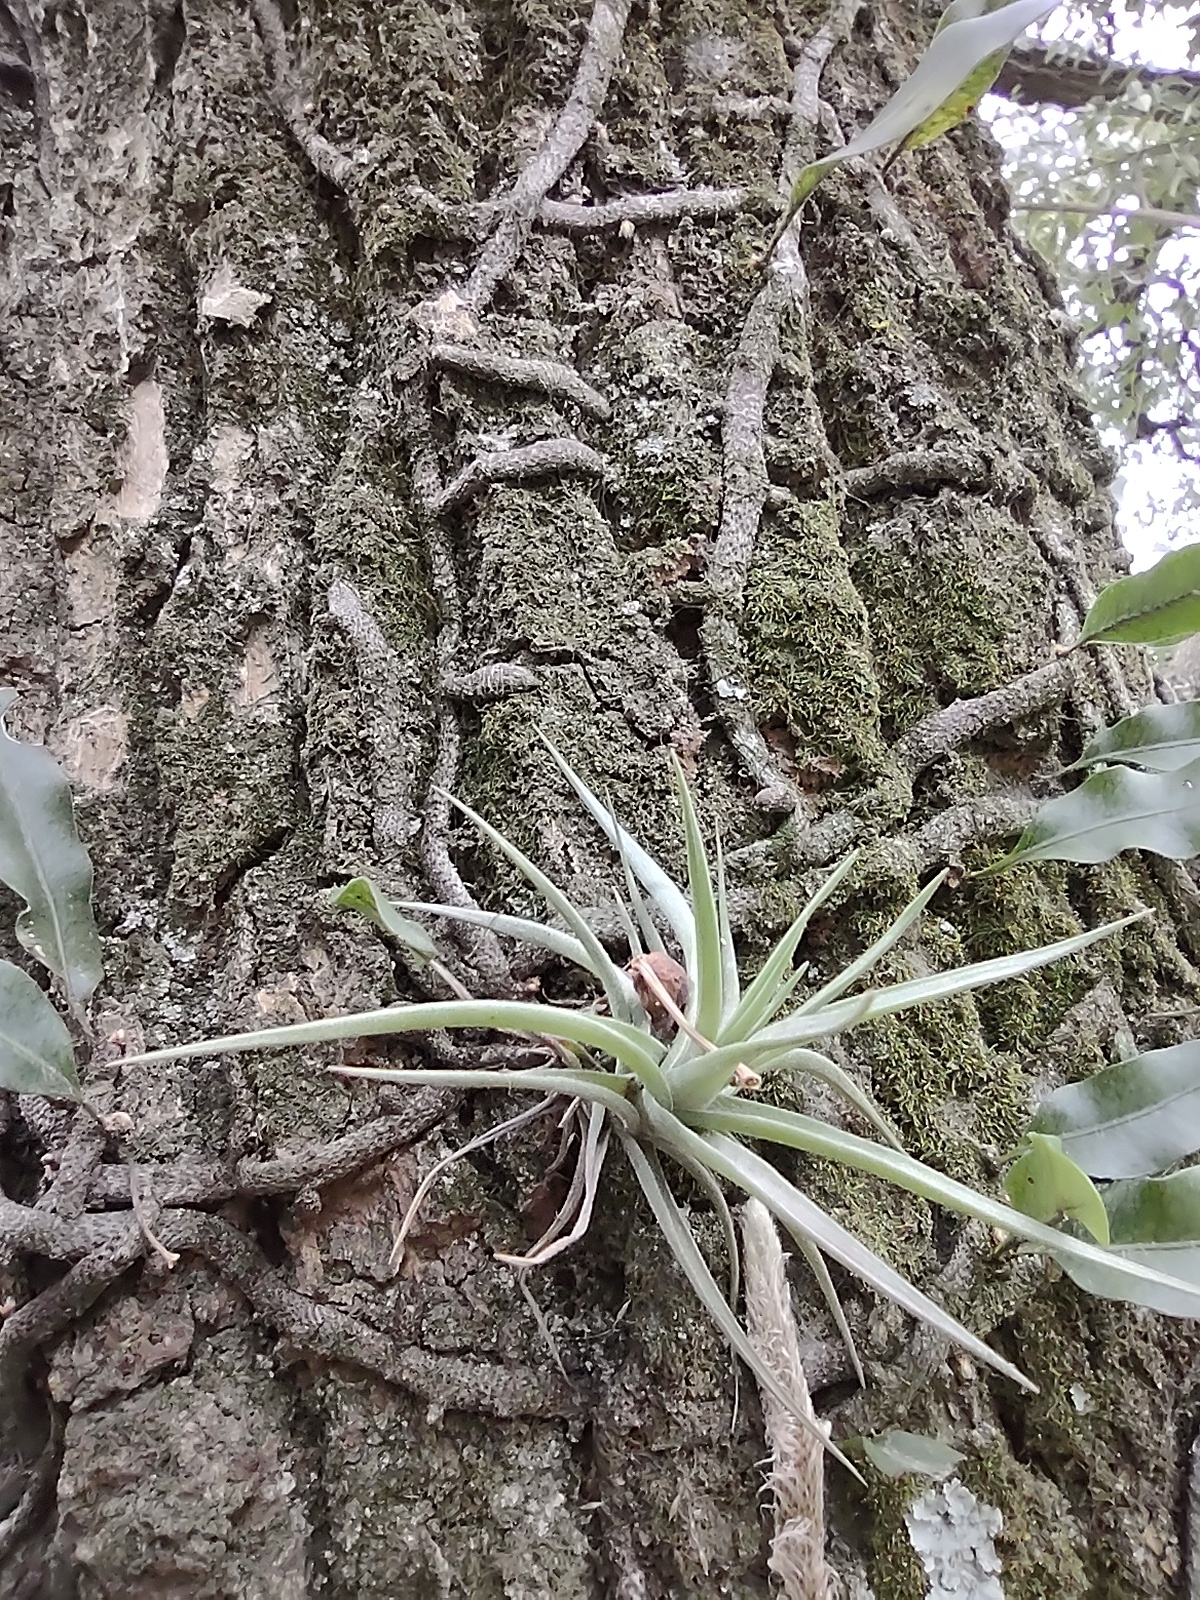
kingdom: Plantae
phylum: Tracheophyta
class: Liliopsida
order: Poales
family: Bromeliaceae
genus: Tillandsia
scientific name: Tillandsia aeranthos
